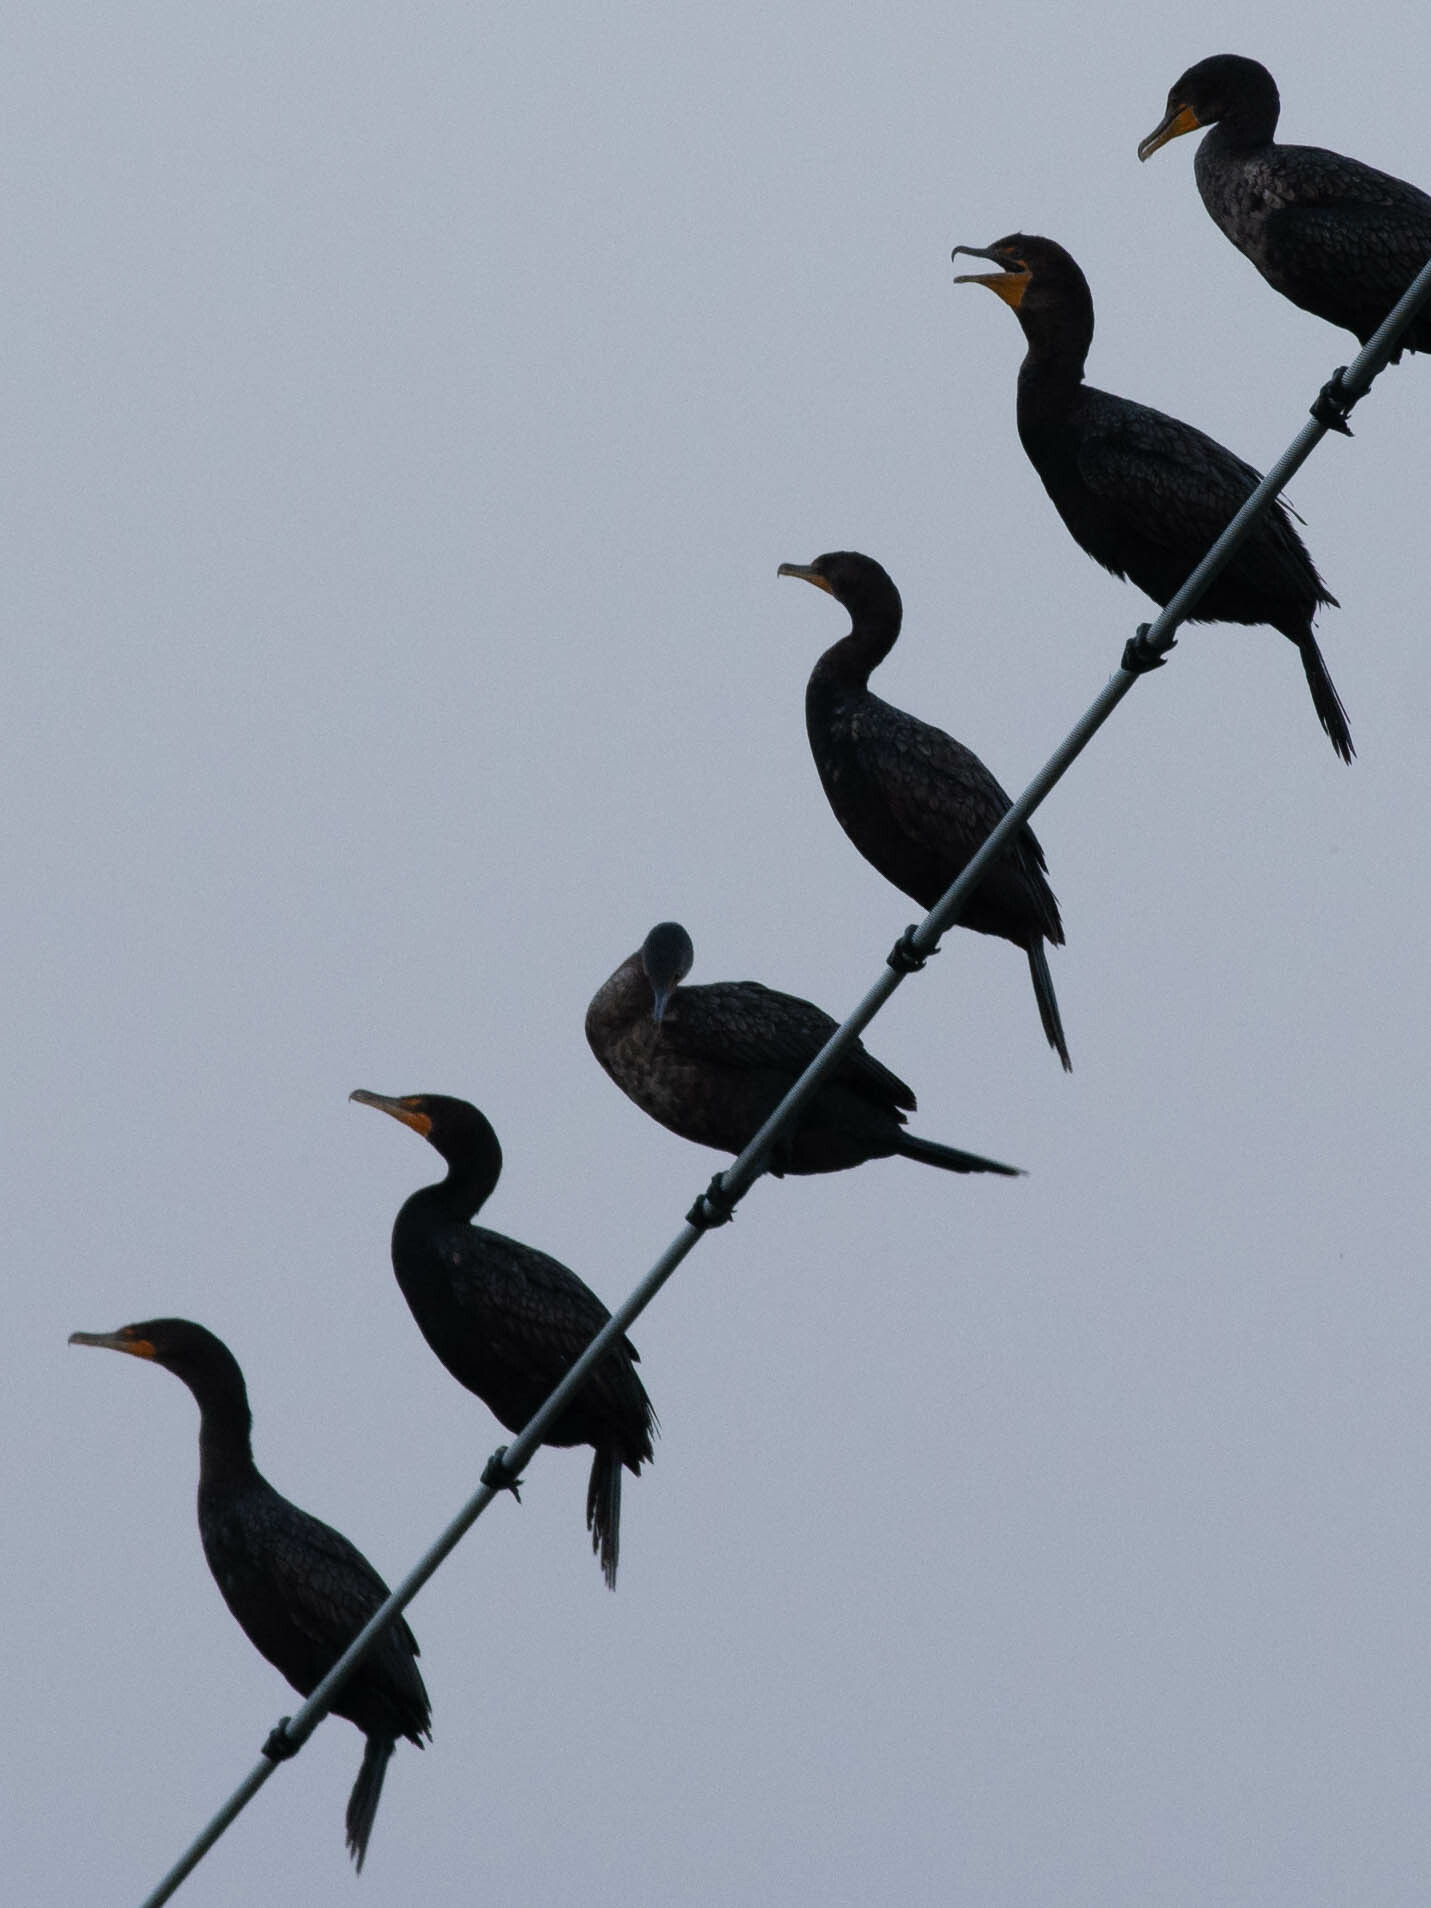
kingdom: Animalia
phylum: Chordata
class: Aves
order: Suliformes
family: Phalacrocoracidae
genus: Phalacrocorax
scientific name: Phalacrocorax auritus
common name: Double-crested cormorant
